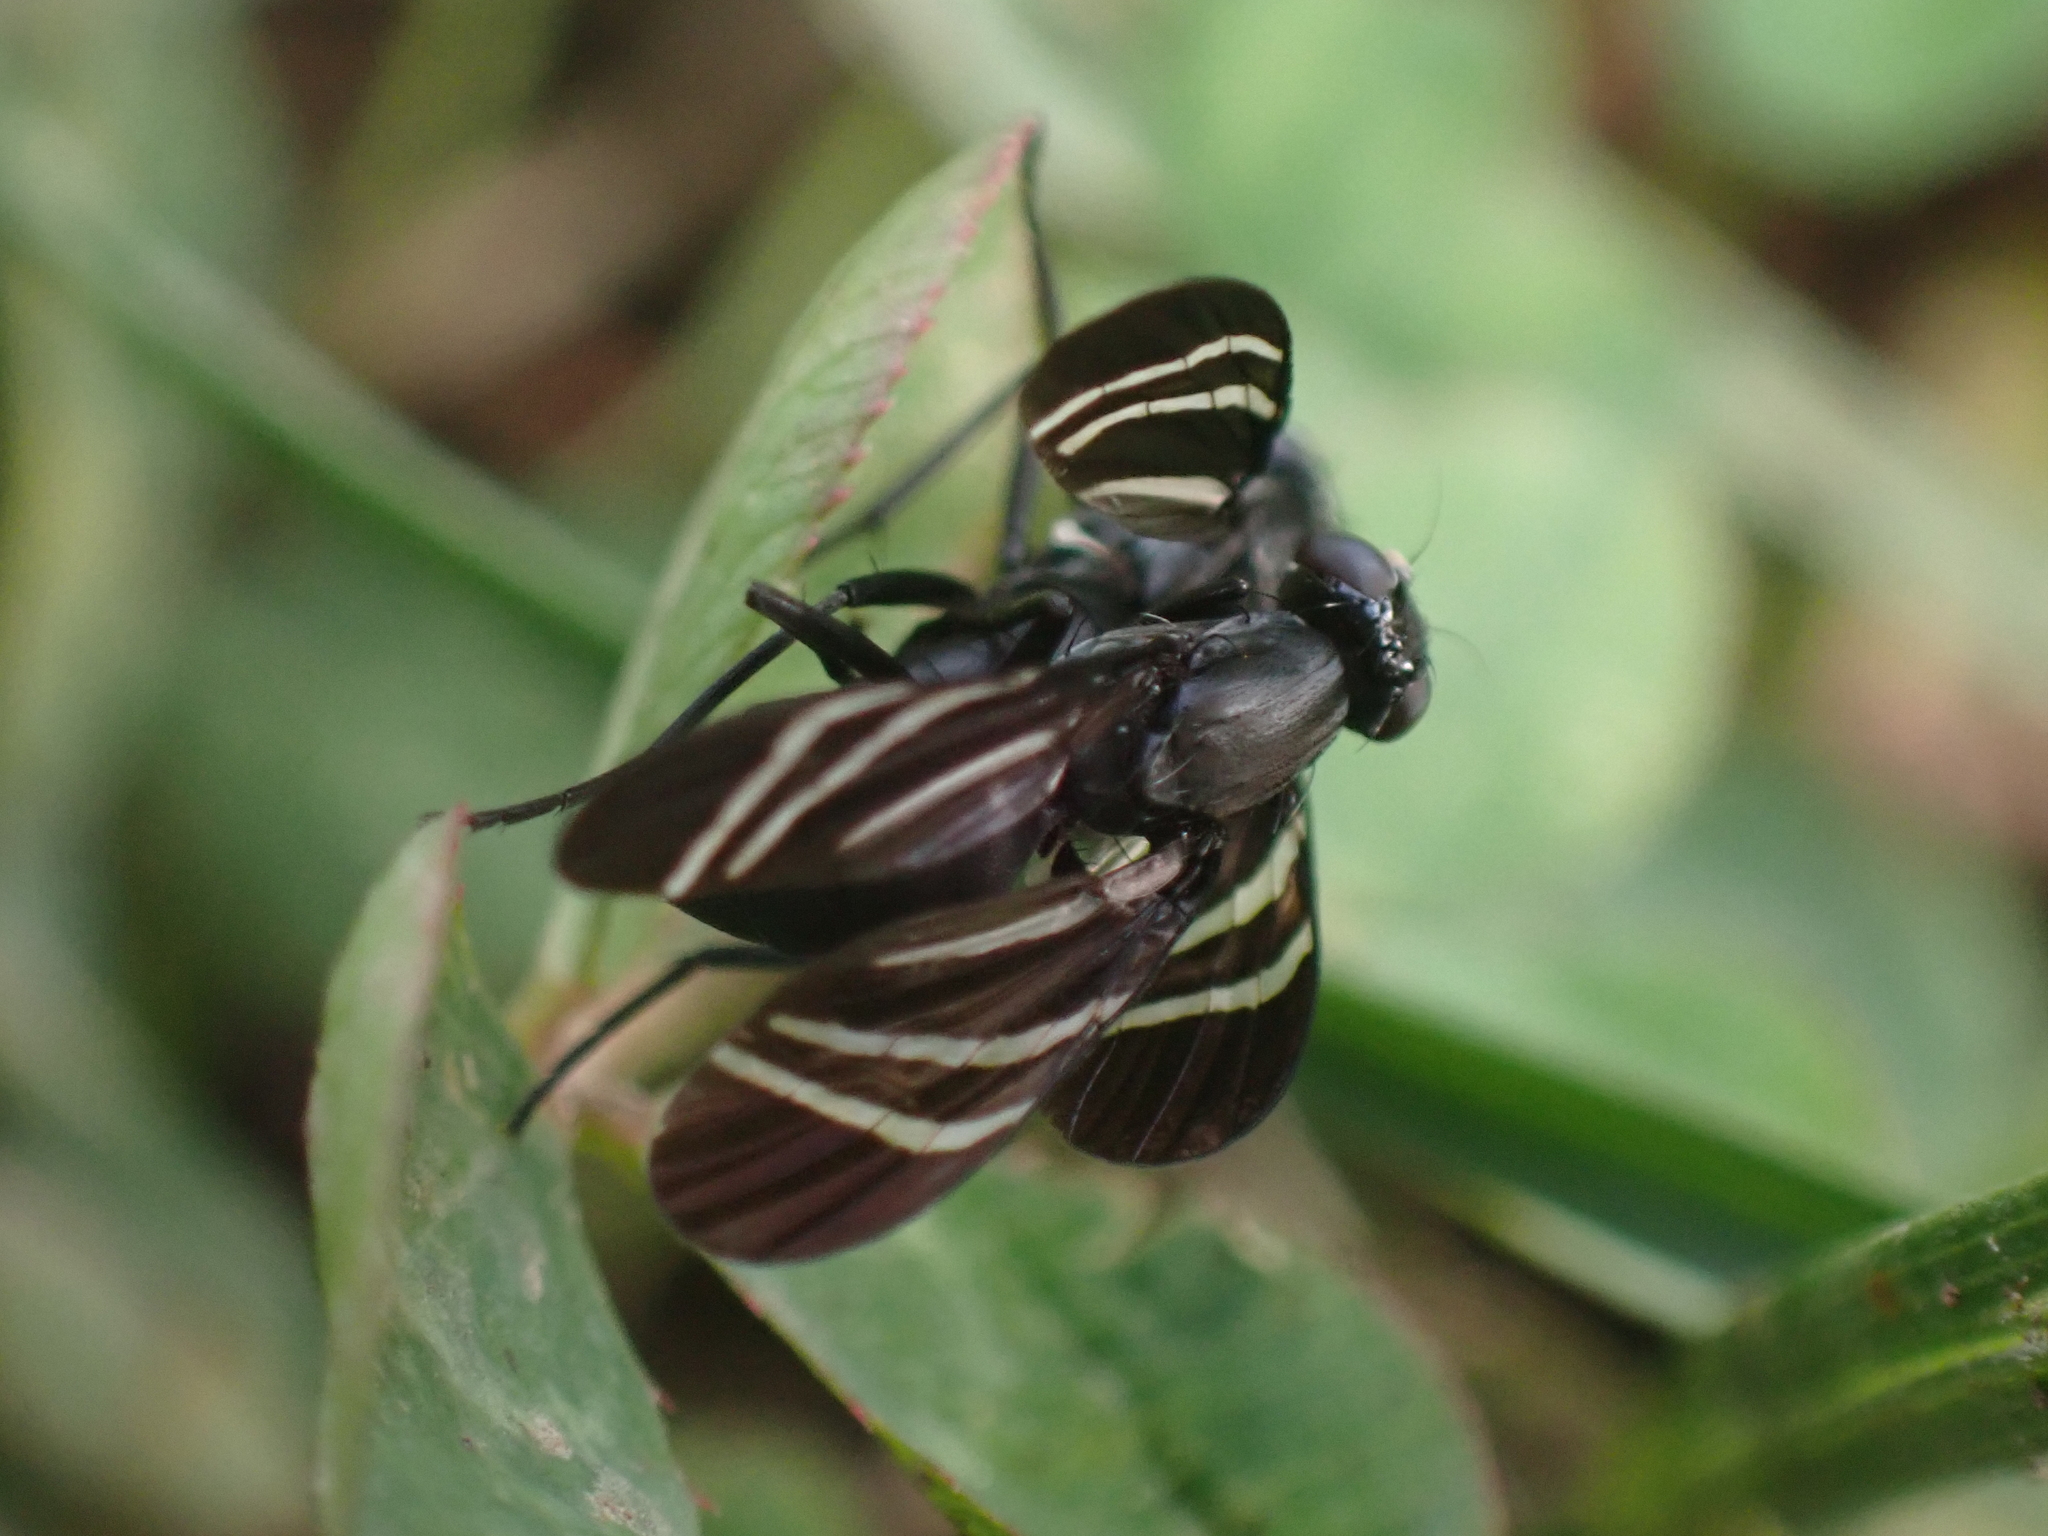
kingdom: Animalia
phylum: Arthropoda
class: Insecta
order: Diptera
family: Ulidiidae
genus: Tritoxa
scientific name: Tritoxa flexa
